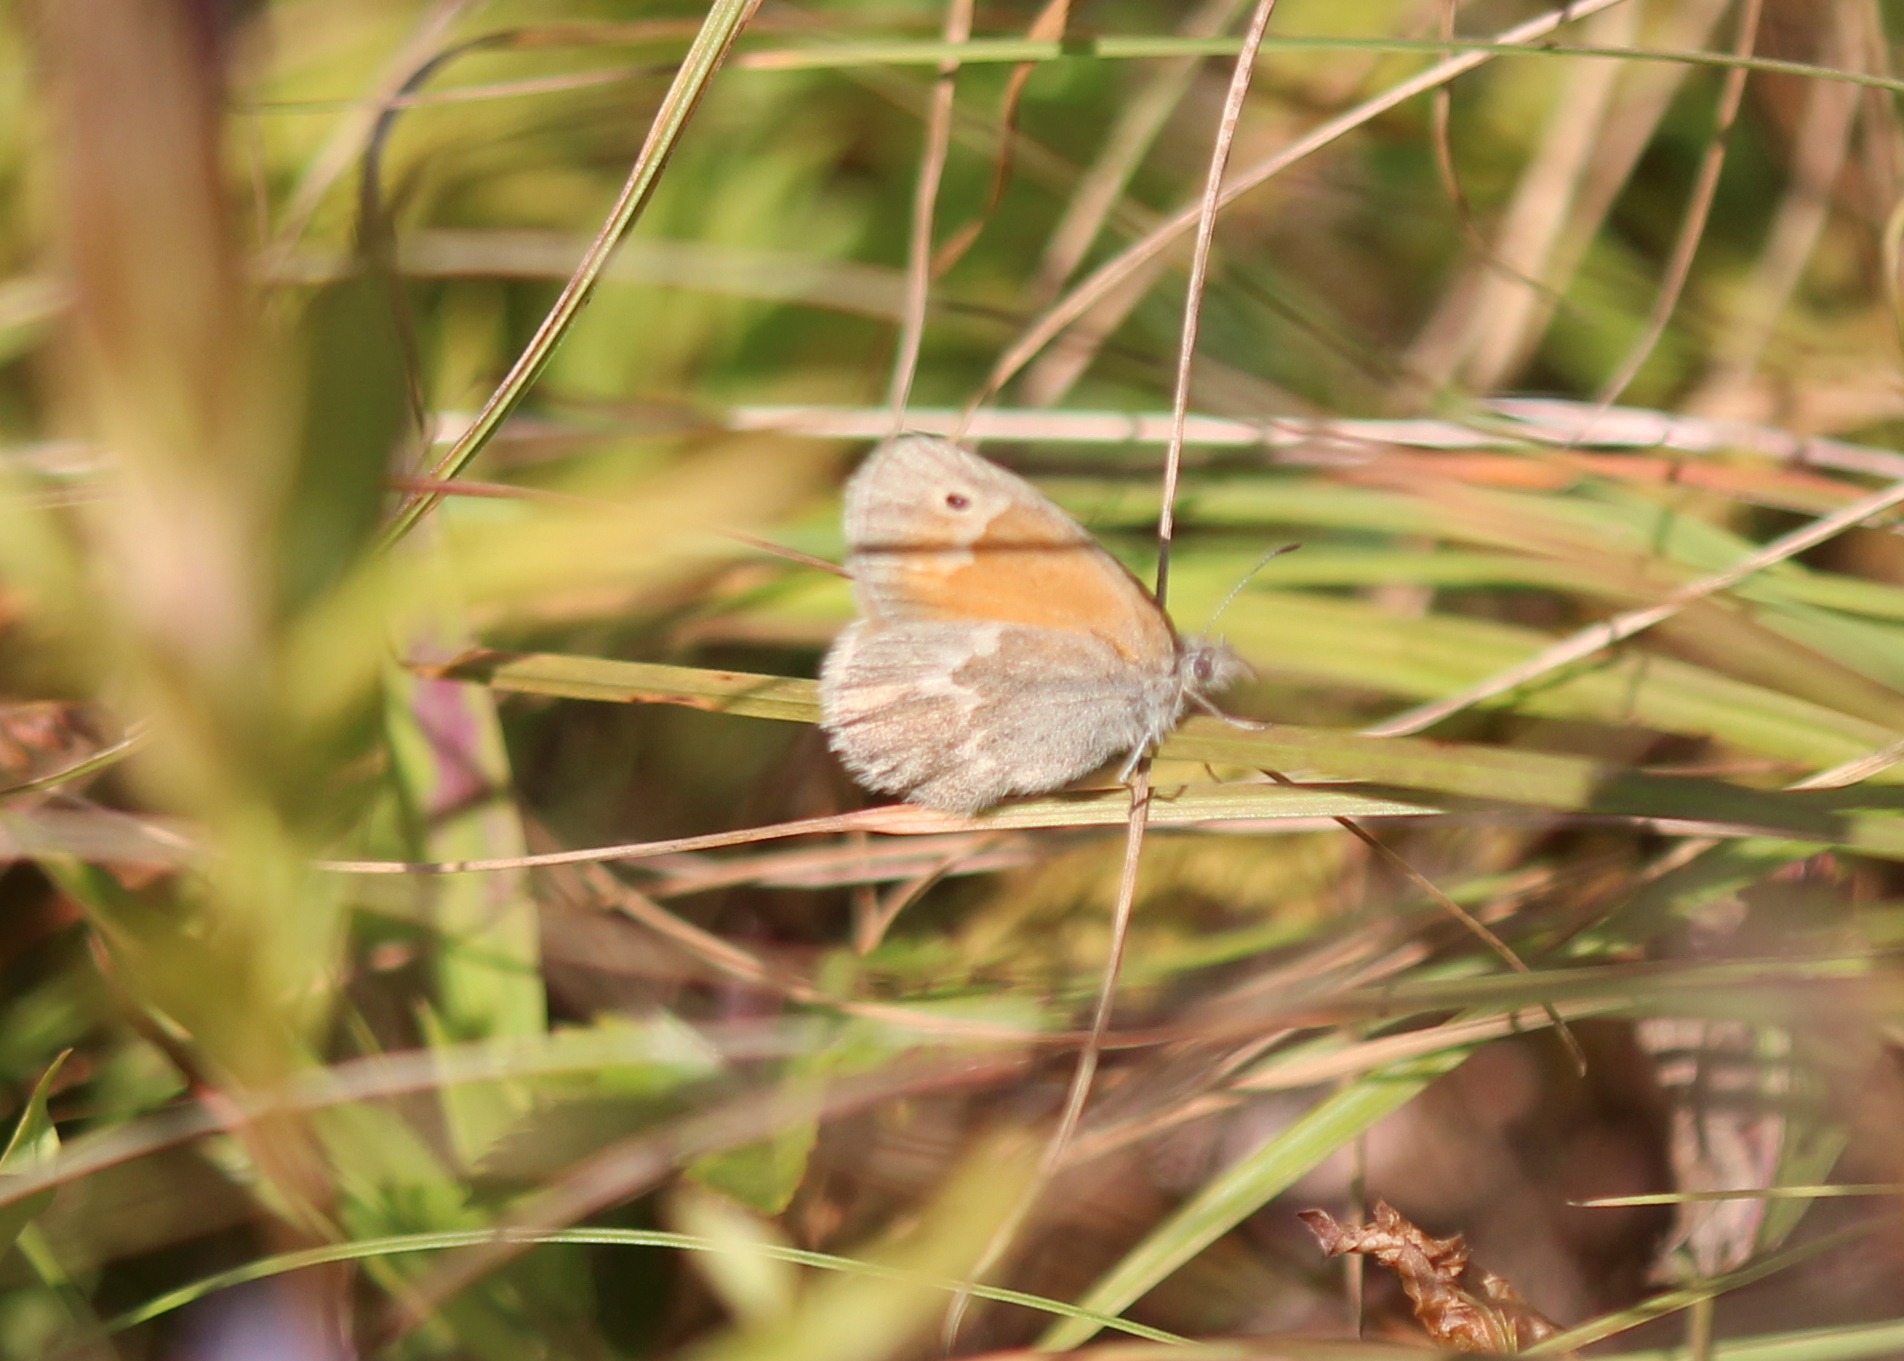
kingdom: Animalia
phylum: Arthropoda
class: Insecta
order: Lepidoptera
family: Nymphalidae
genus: Coenonympha
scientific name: Coenonympha california
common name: Common ringlet
